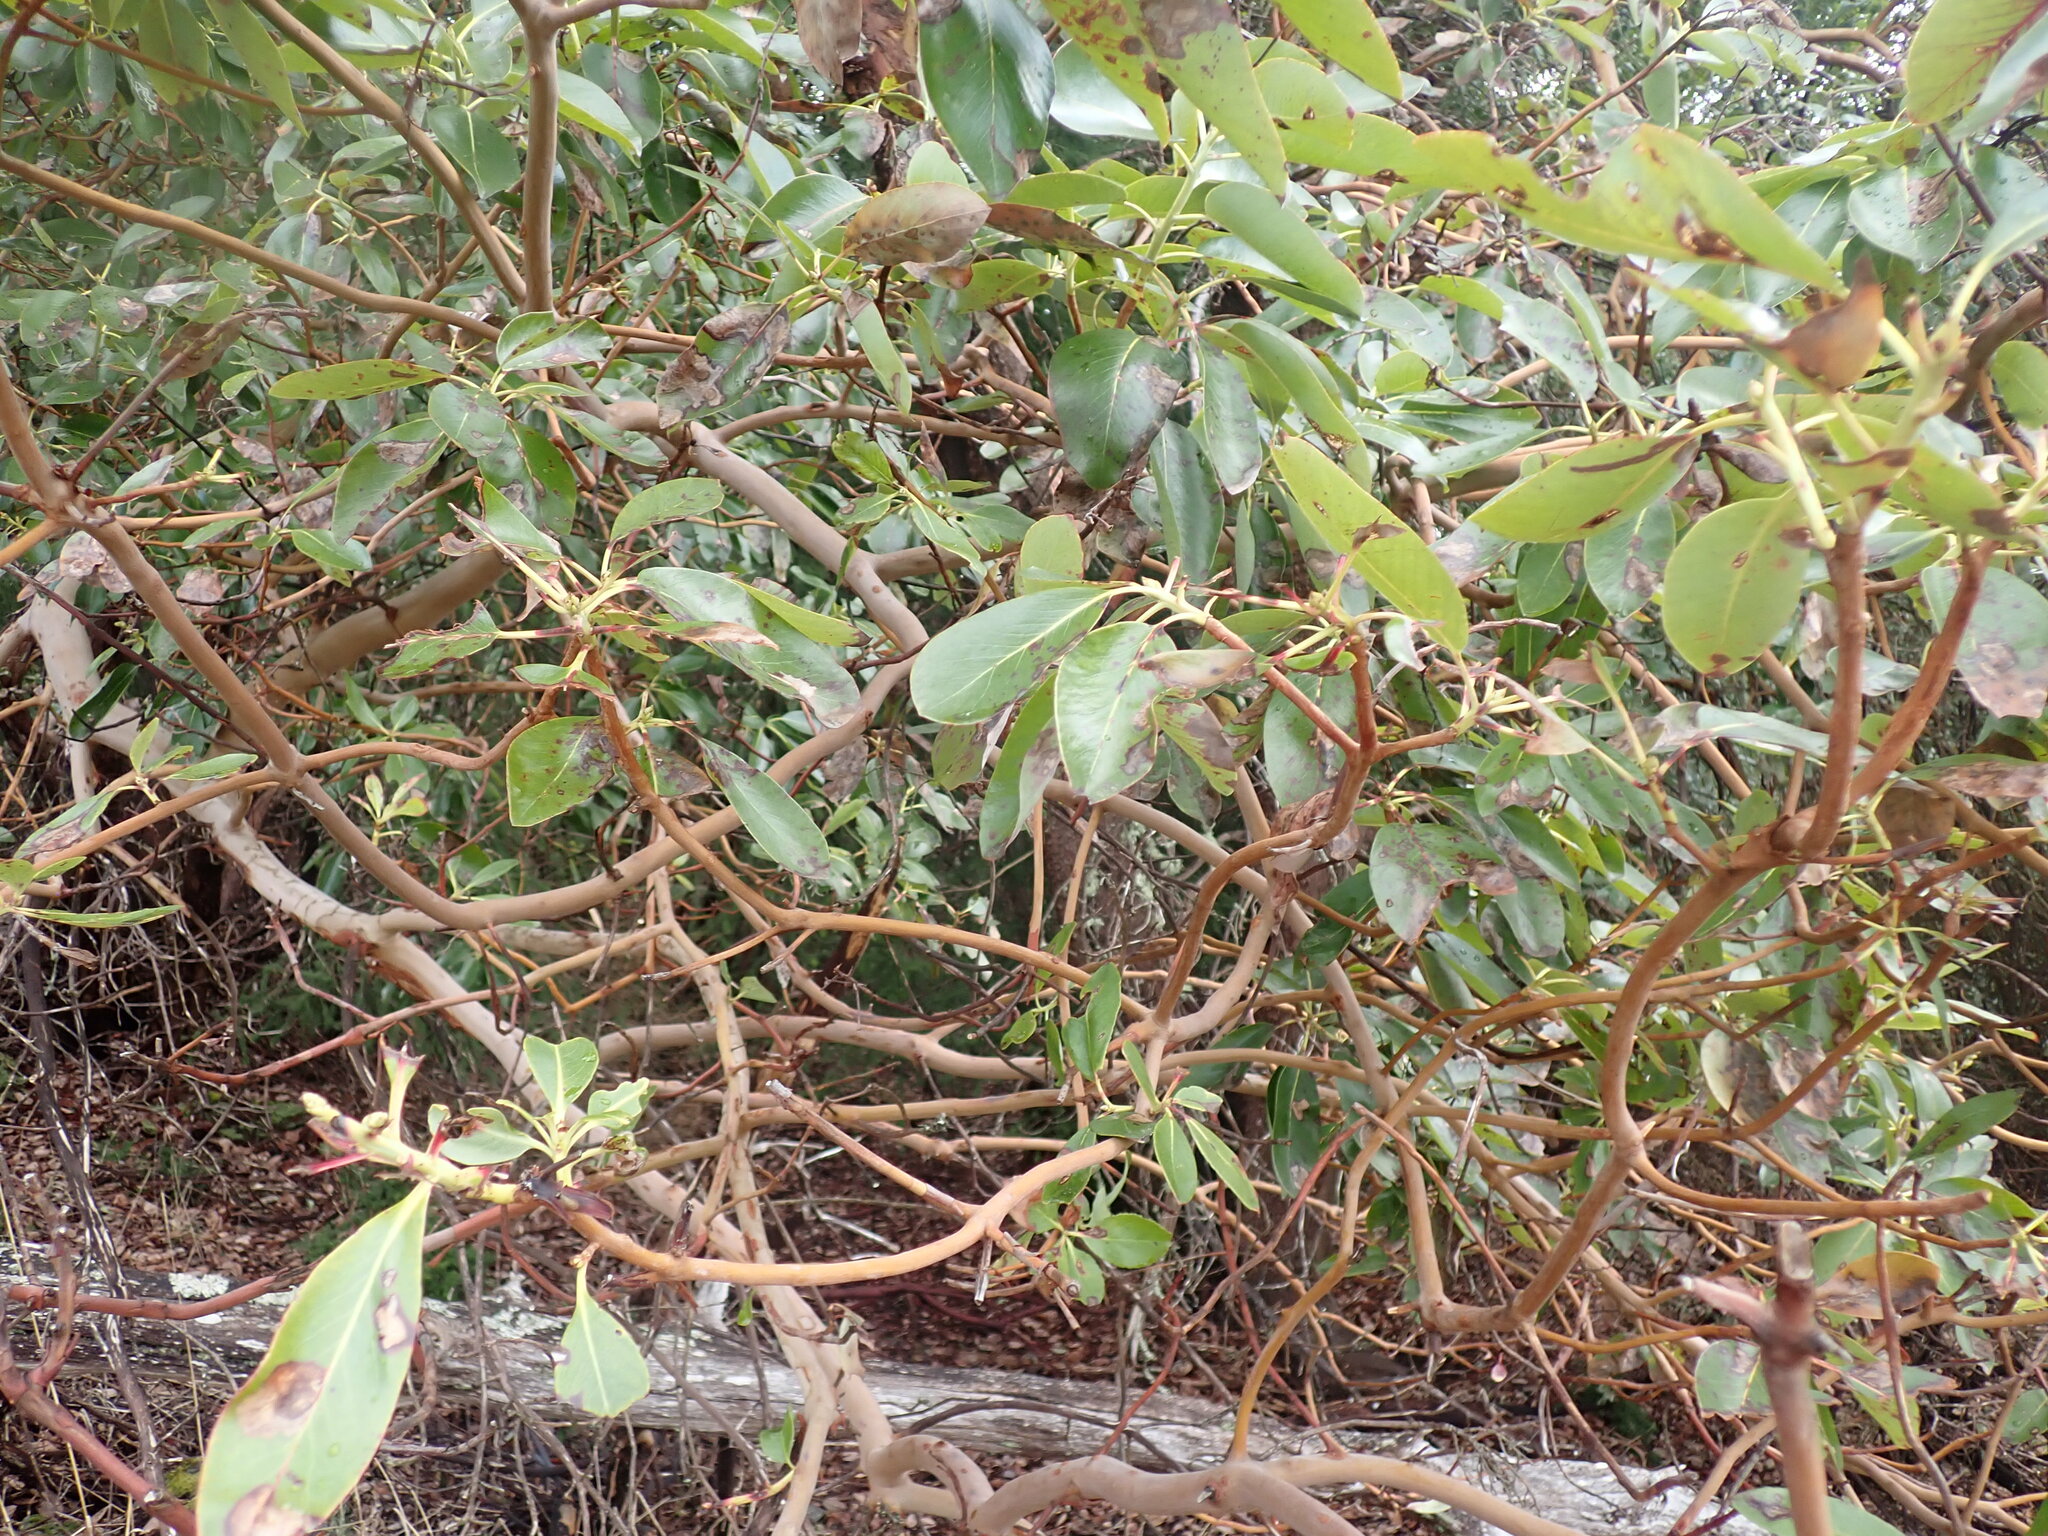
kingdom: Plantae
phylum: Tracheophyta
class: Magnoliopsida
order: Ericales
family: Ericaceae
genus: Arbutus
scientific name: Arbutus menziesii
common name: Pacific madrone
